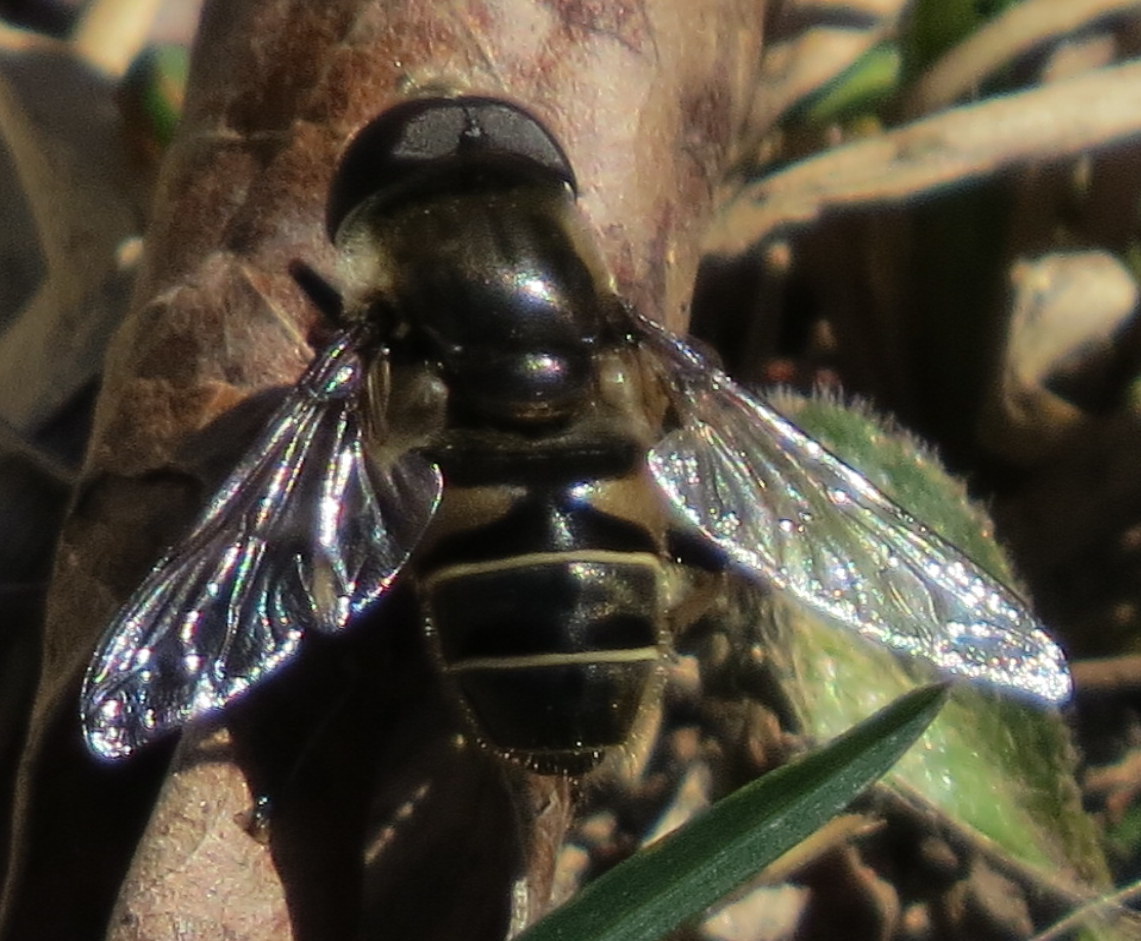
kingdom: Animalia
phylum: Arthropoda
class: Insecta
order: Diptera
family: Syrphidae
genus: Eristalis
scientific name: Eristalis dimidiata
